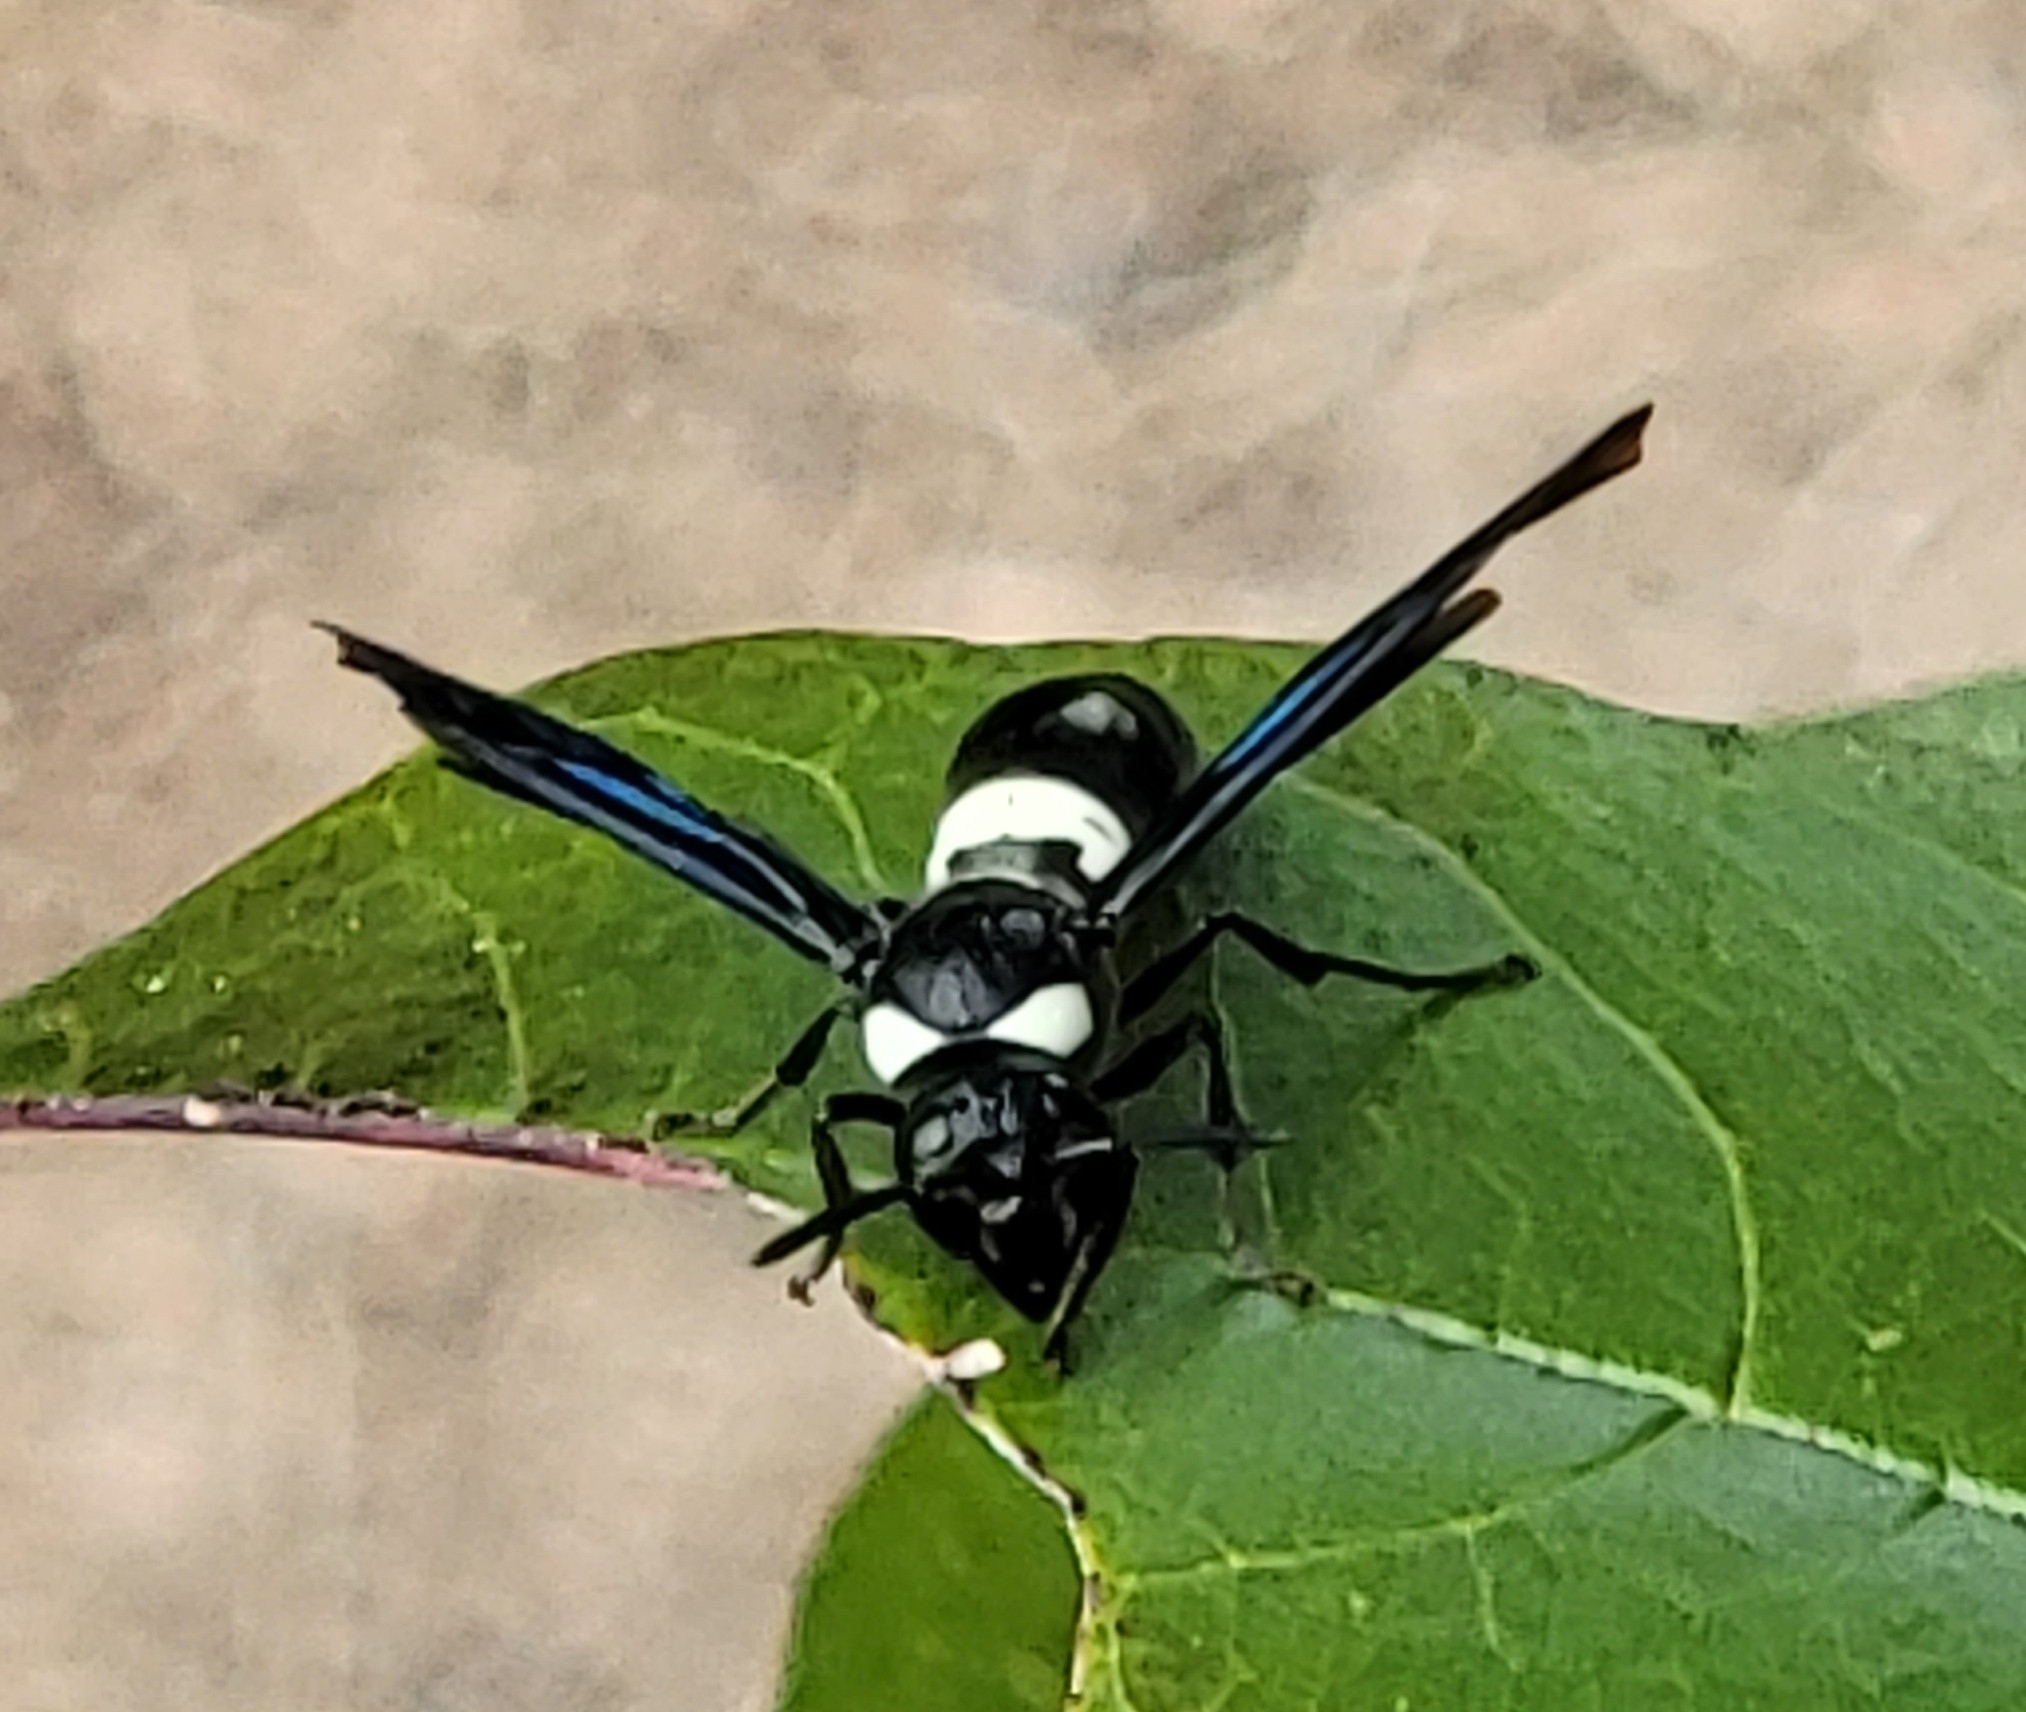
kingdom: Animalia
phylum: Arthropoda
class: Insecta
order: Hymenoptera
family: Eumenidae
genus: Monobia
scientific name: Monobia quadridens
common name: Four-toothed mason wasp
